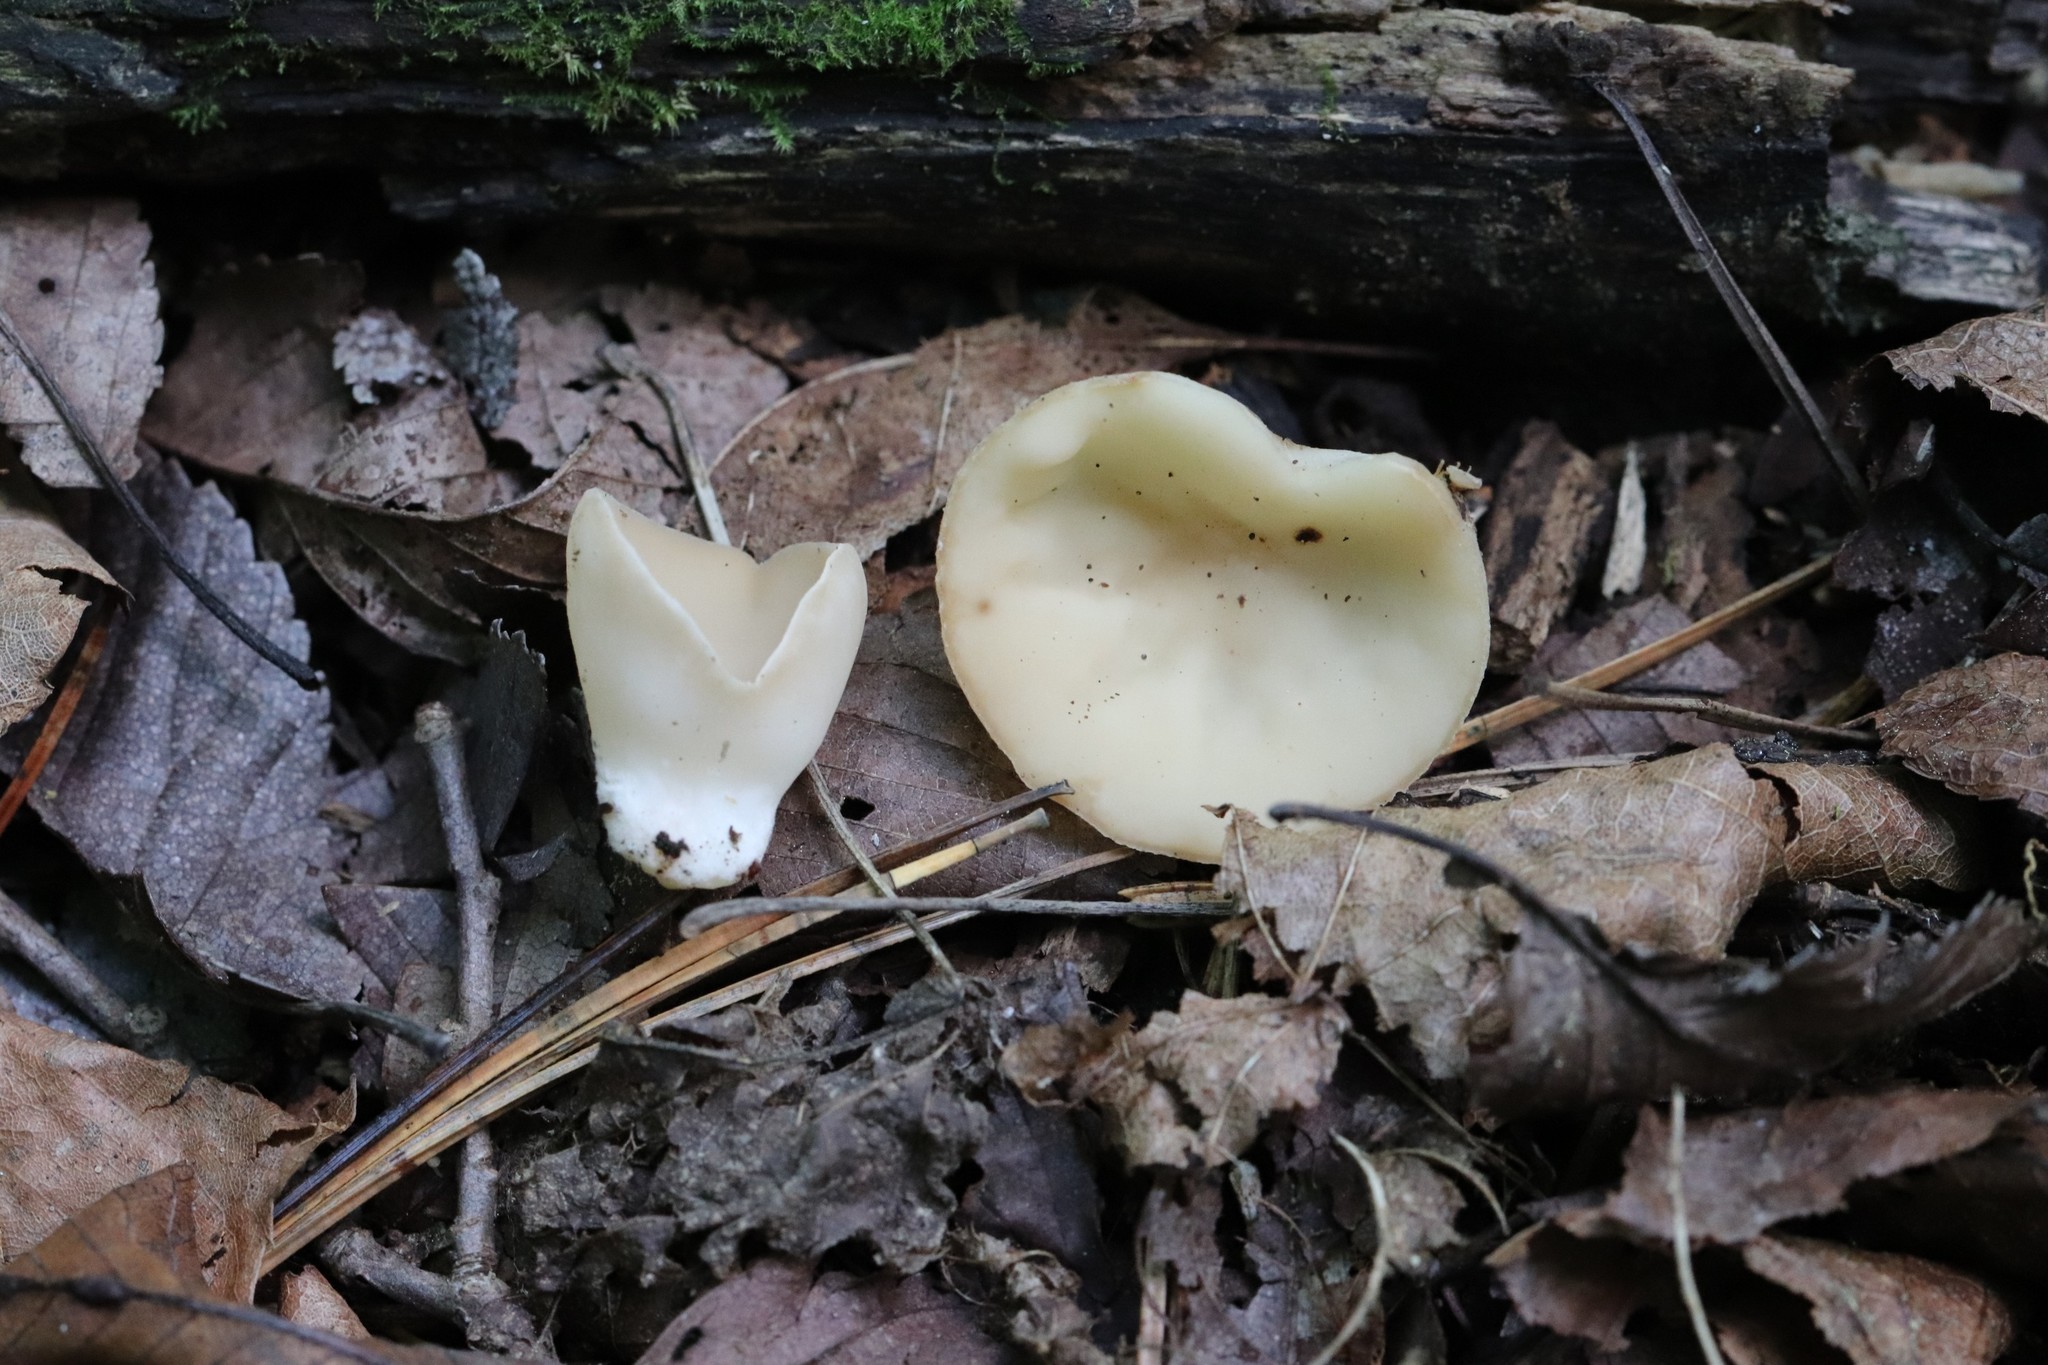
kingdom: Fungi
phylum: Ascomycota
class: Pezizomycetes
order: Pezizales
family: Sarcoscyphaceae
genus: Sarcoscypha
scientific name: Sarcoscypha vassiljevae
